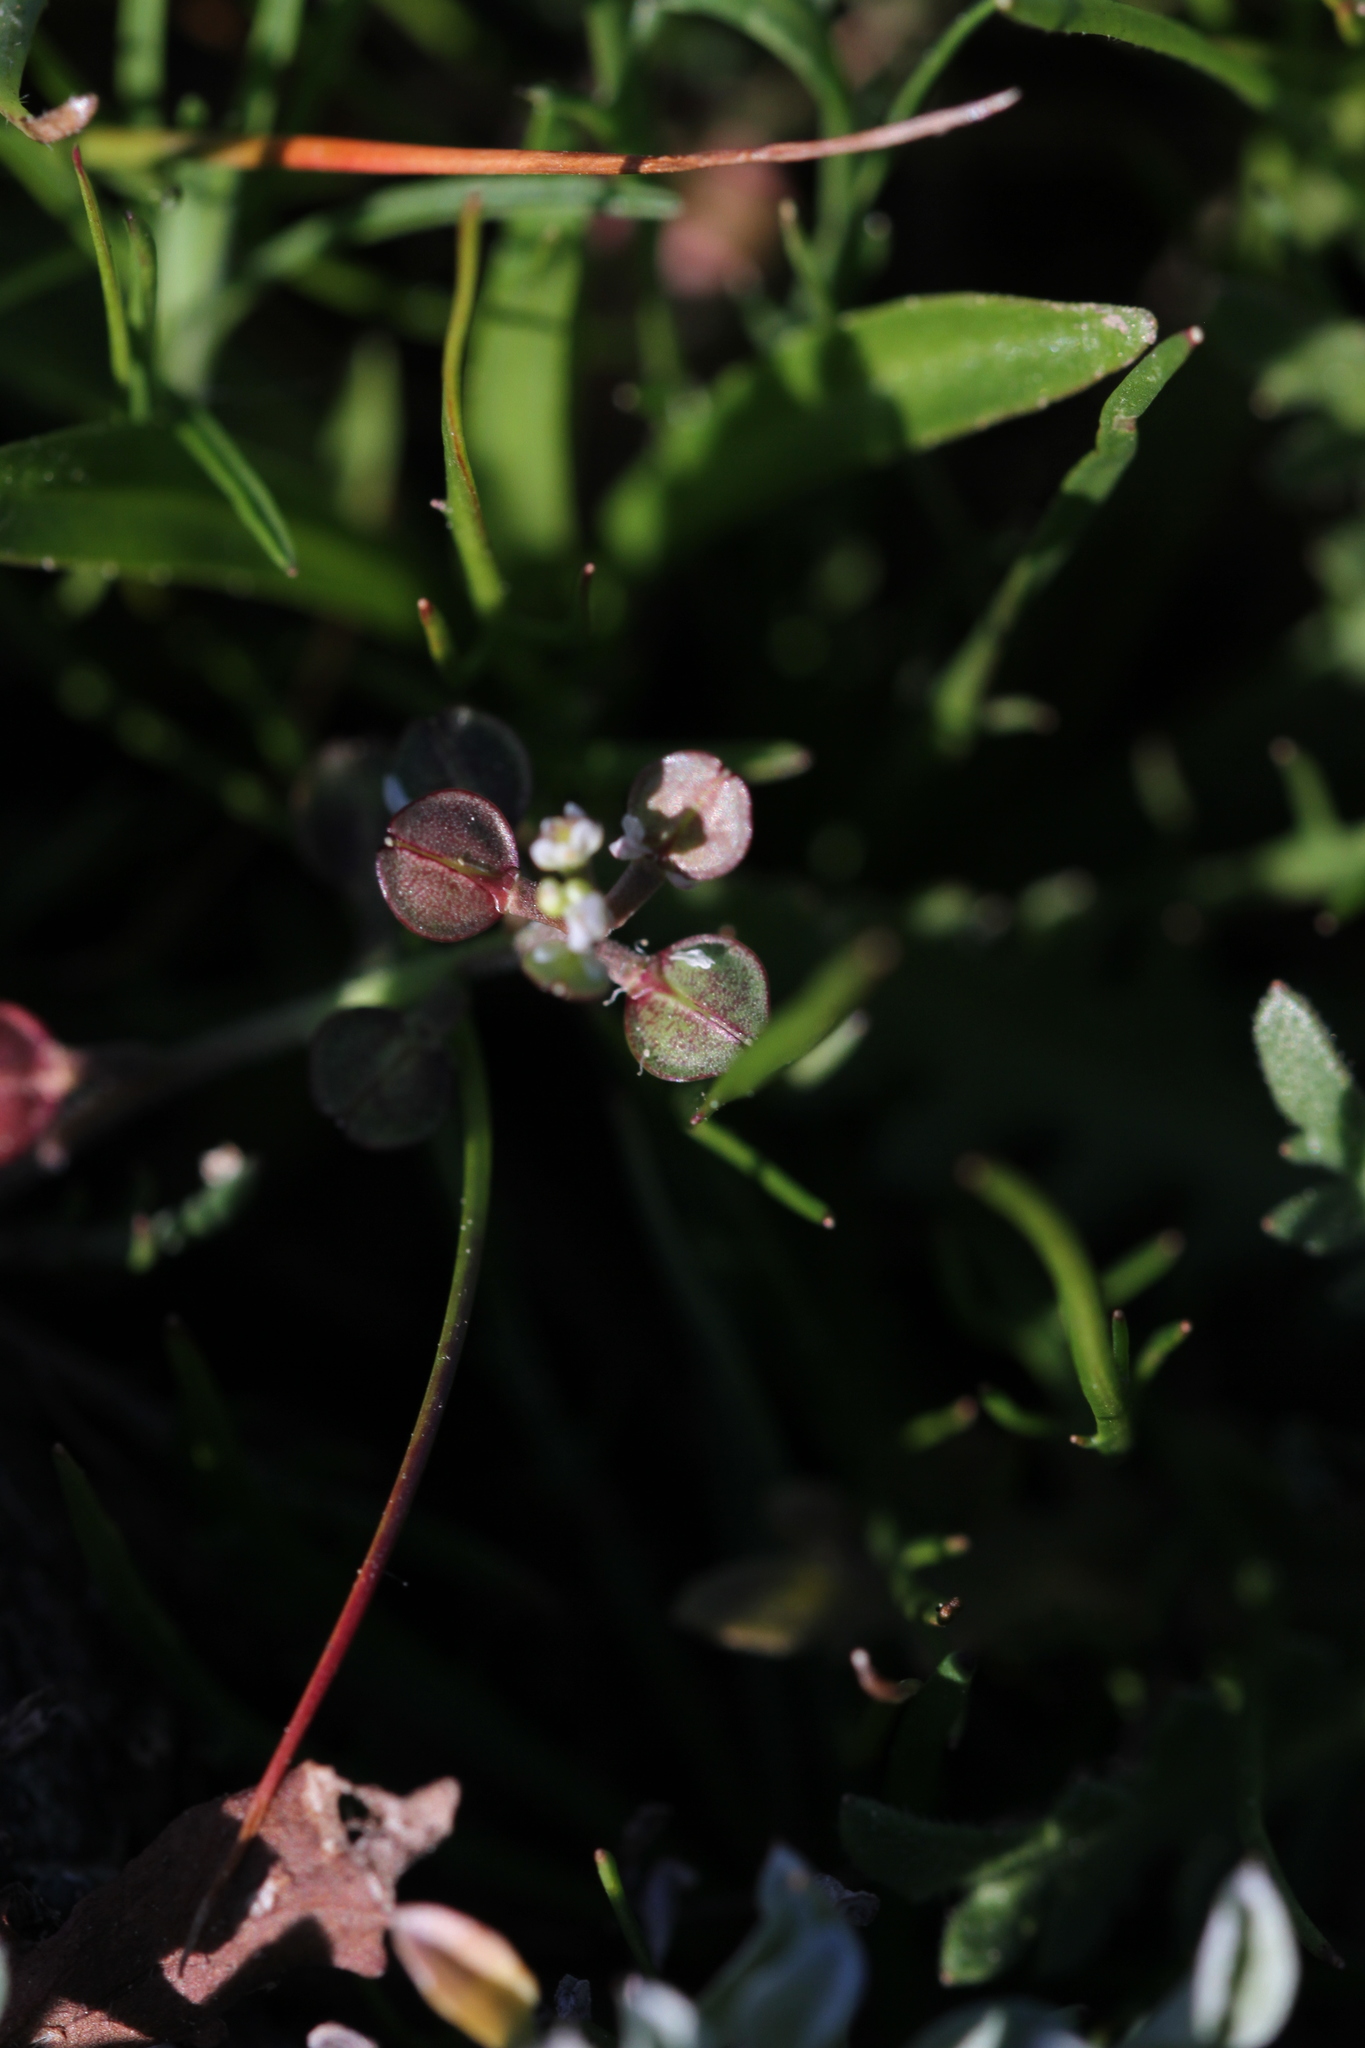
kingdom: Plantae
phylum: Tracheophyta
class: Magnoliopsida
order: Brassicales
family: Brassicaceae
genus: Lepidium
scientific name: Lepidium nitidum
